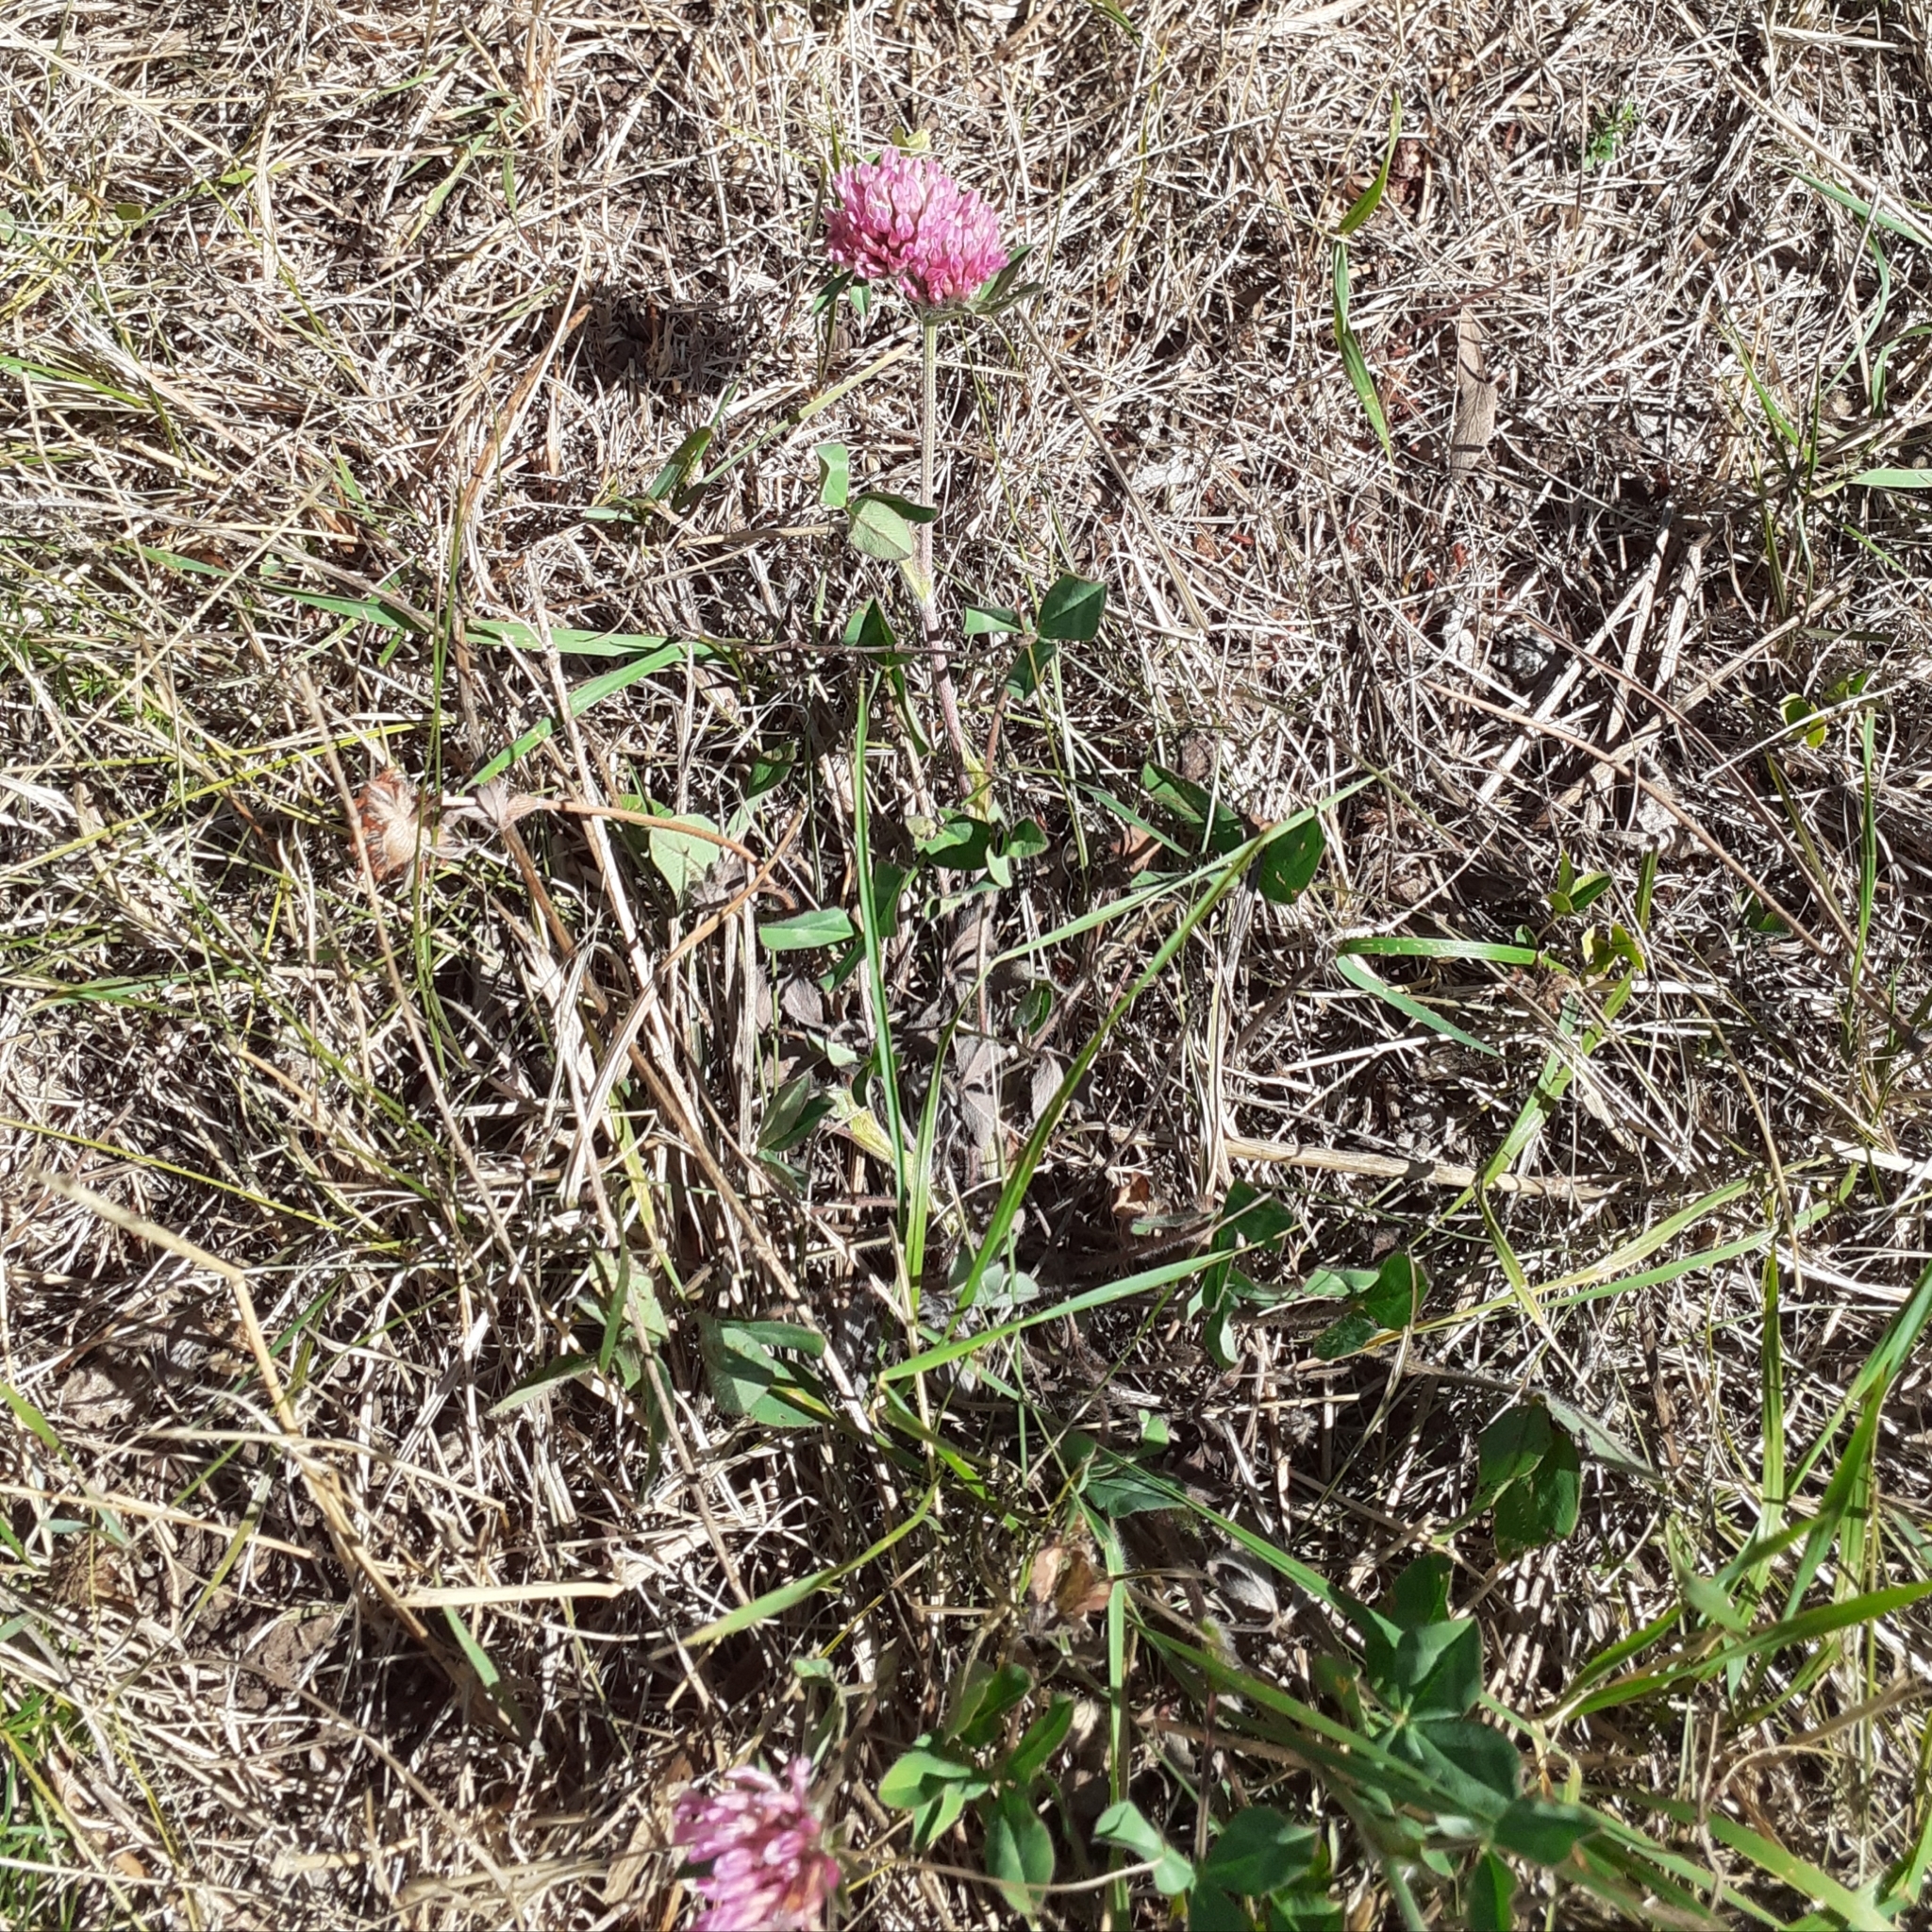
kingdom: Plantae
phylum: Tracheophyta
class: Magnoliopsida
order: Fabales
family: Fabaceae
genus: Trifolium
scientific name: Trifolium pratense
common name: Red clover
